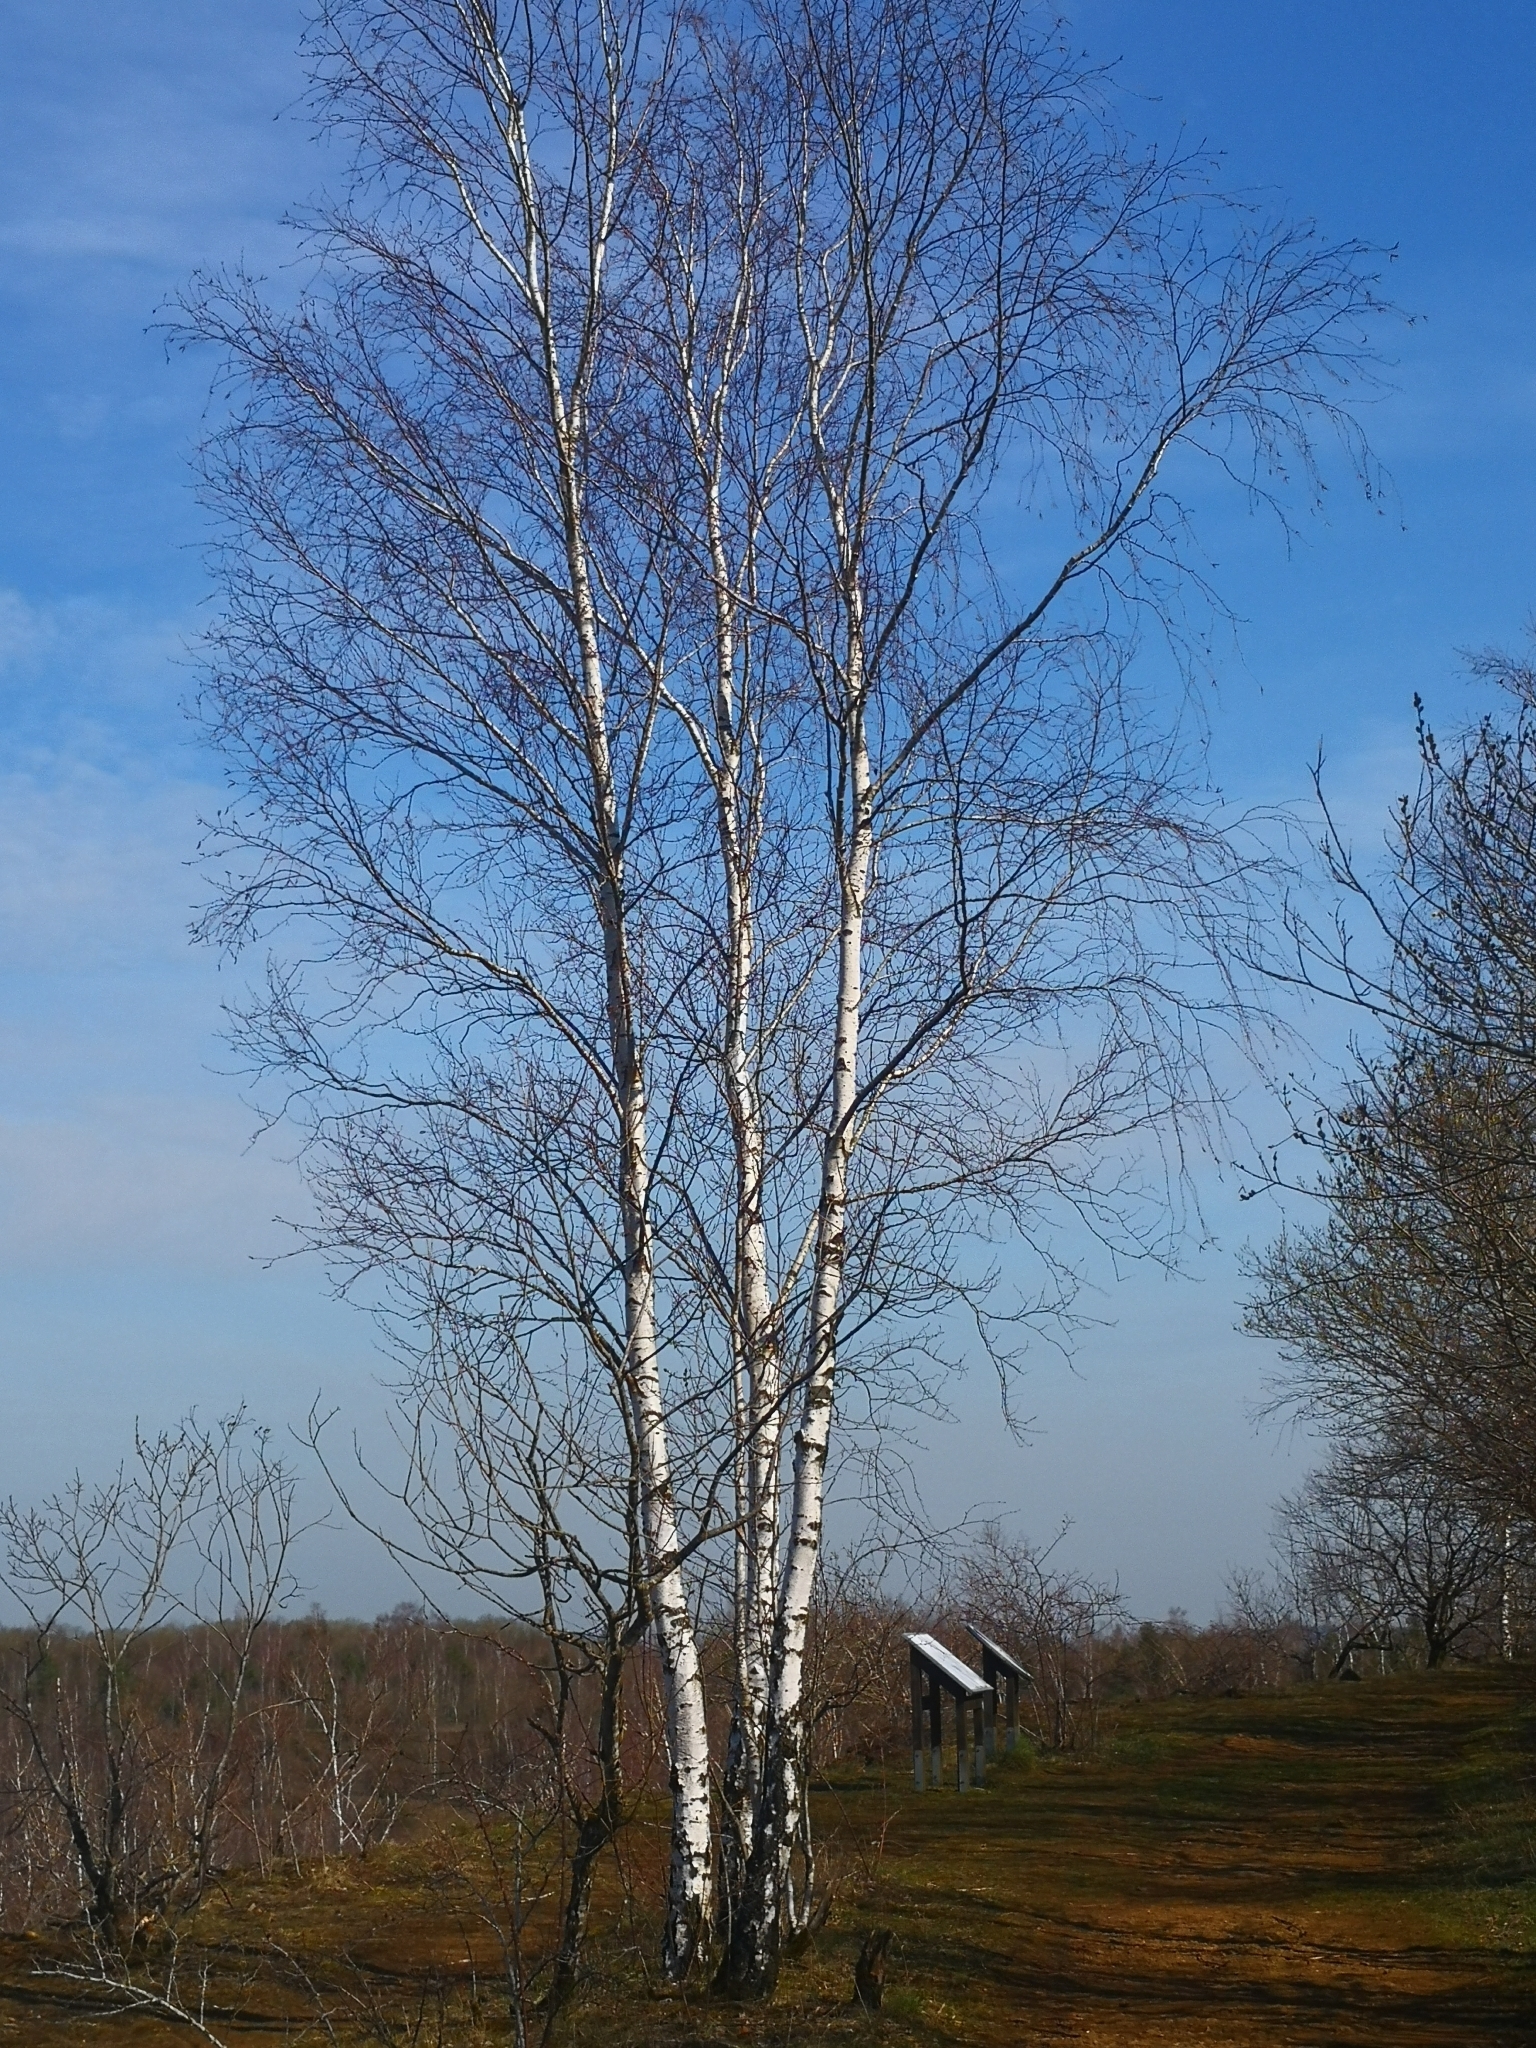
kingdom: Plantae
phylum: Tracheophyta
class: Magnoliopsida
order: Fagales
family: Betulaceae
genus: Betula
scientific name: Betula pendula
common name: Silver birch
